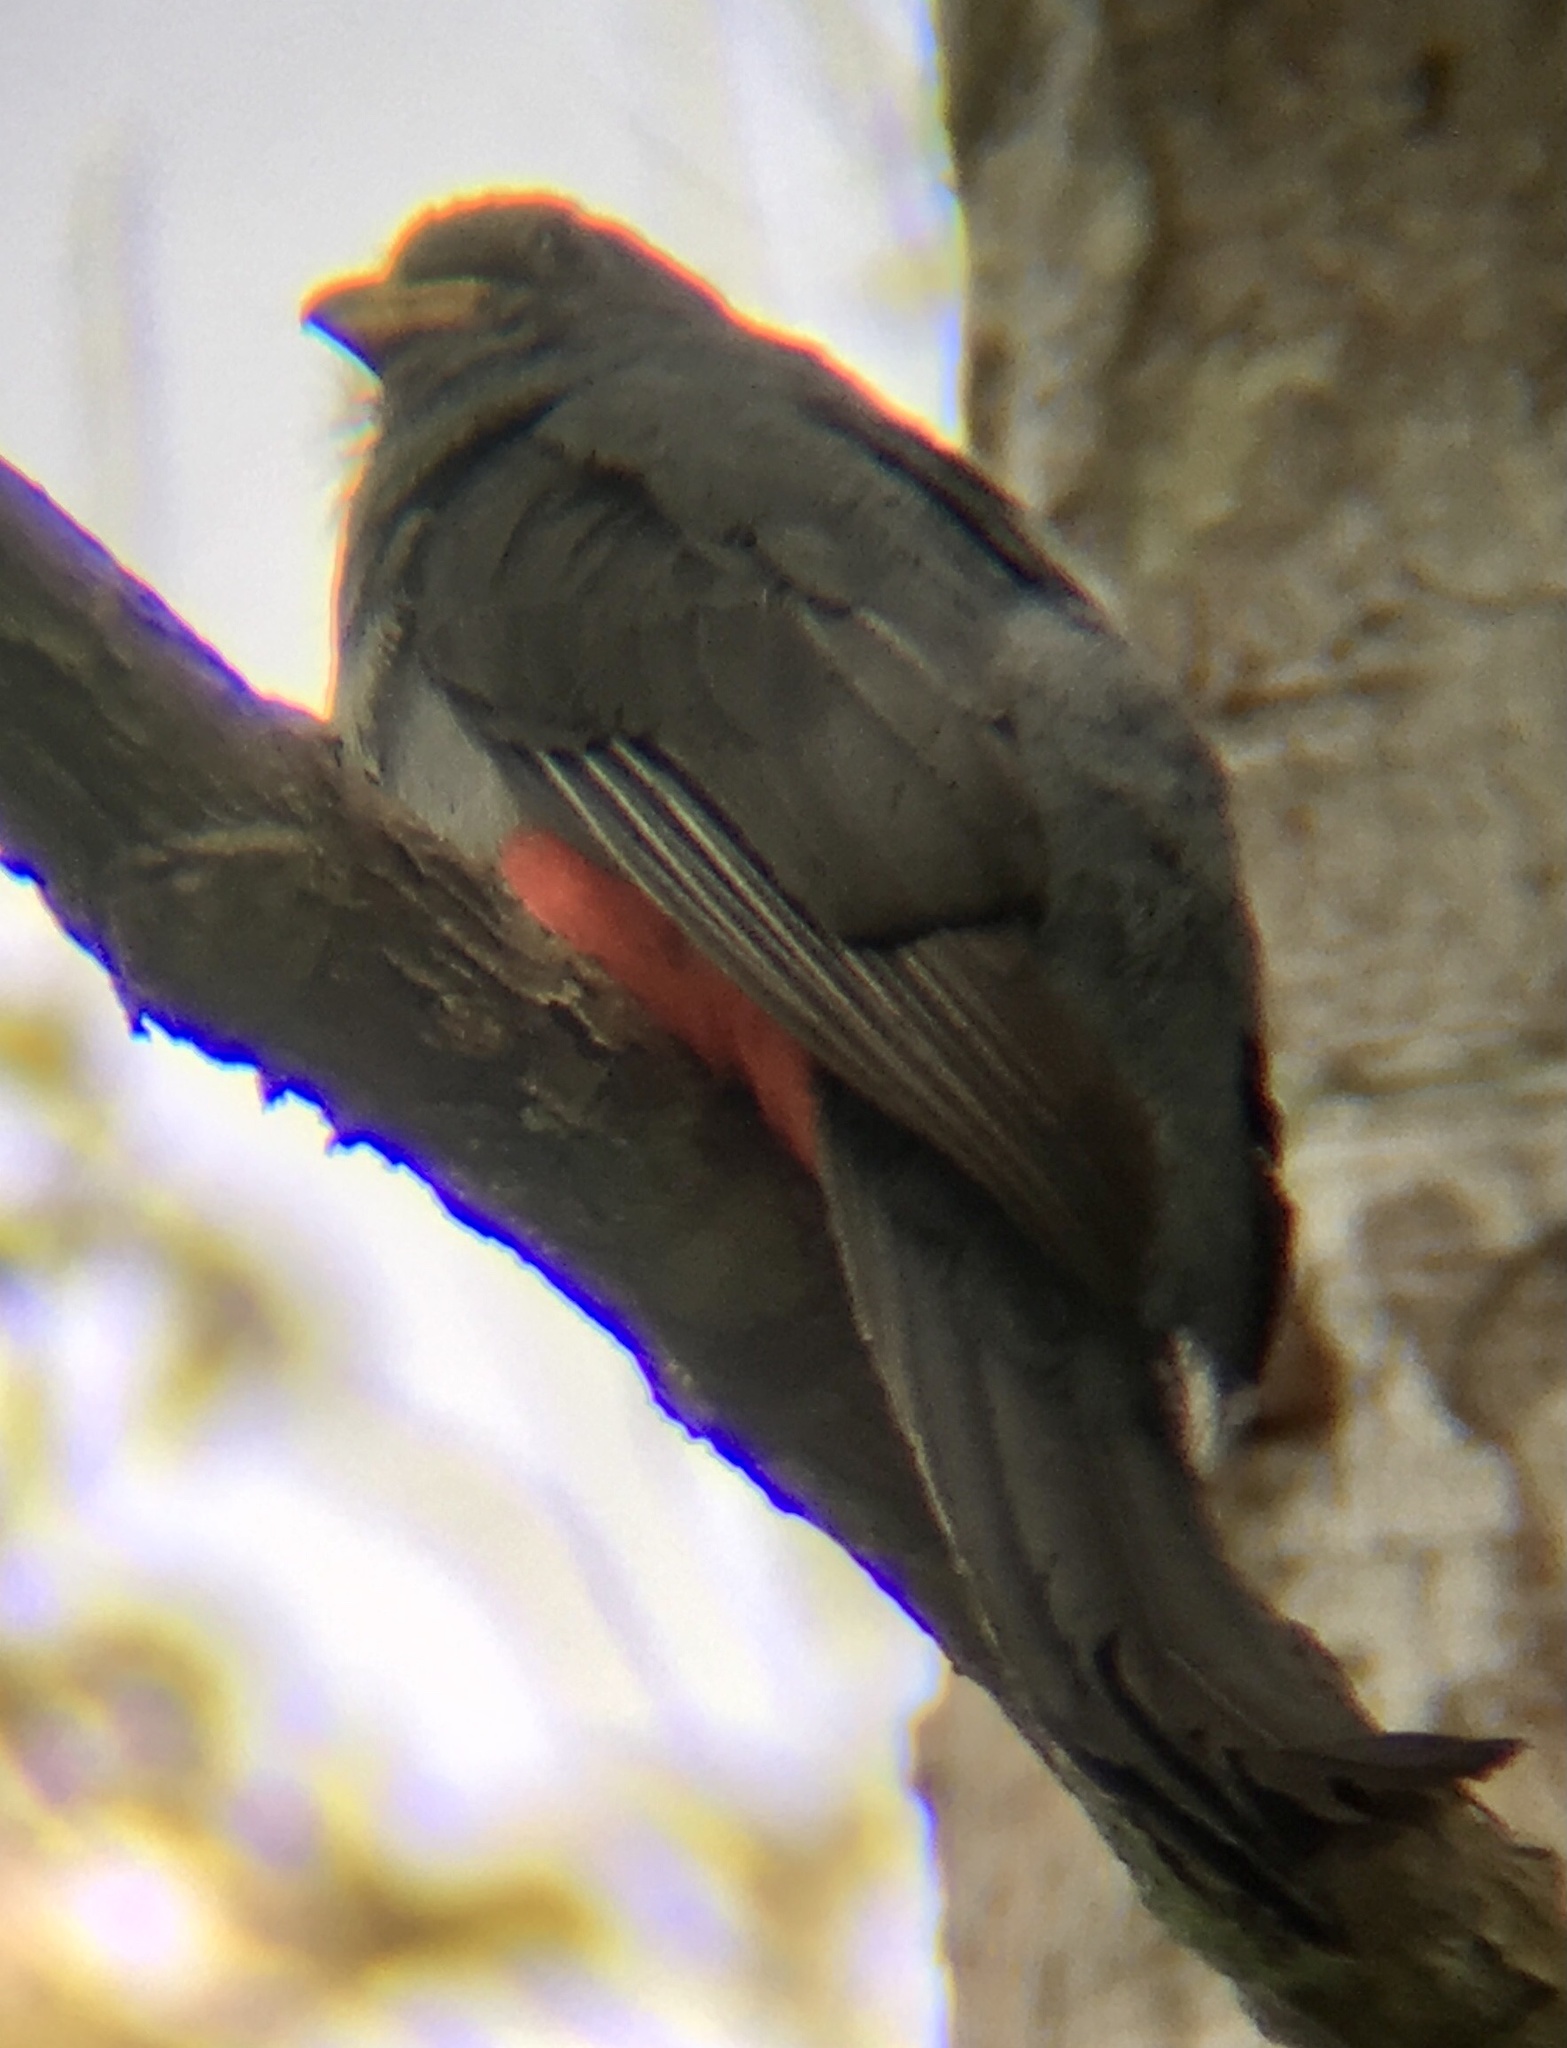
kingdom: Animalia
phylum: Chordata
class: Aves
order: Trogoniformes
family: Trogonidae
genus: Trogon
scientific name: Trogon melanurus
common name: Black-tailed trogon
